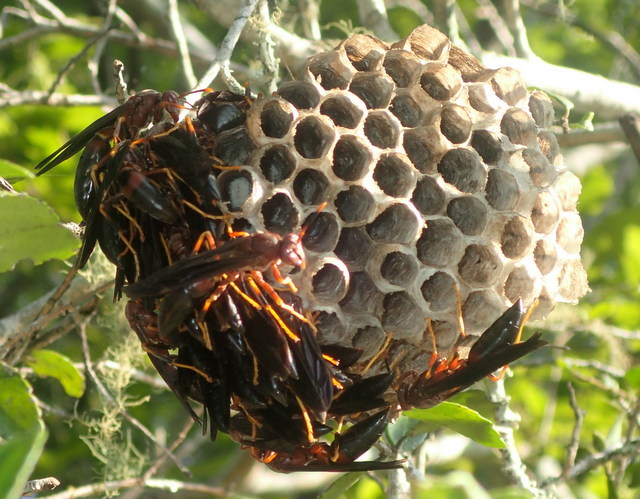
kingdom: Animalia
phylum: Arthropoda
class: Insecta
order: Hymenoptera
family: Eumenidae
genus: Polistes
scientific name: Polistes annularis
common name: Ringed paper wasp
